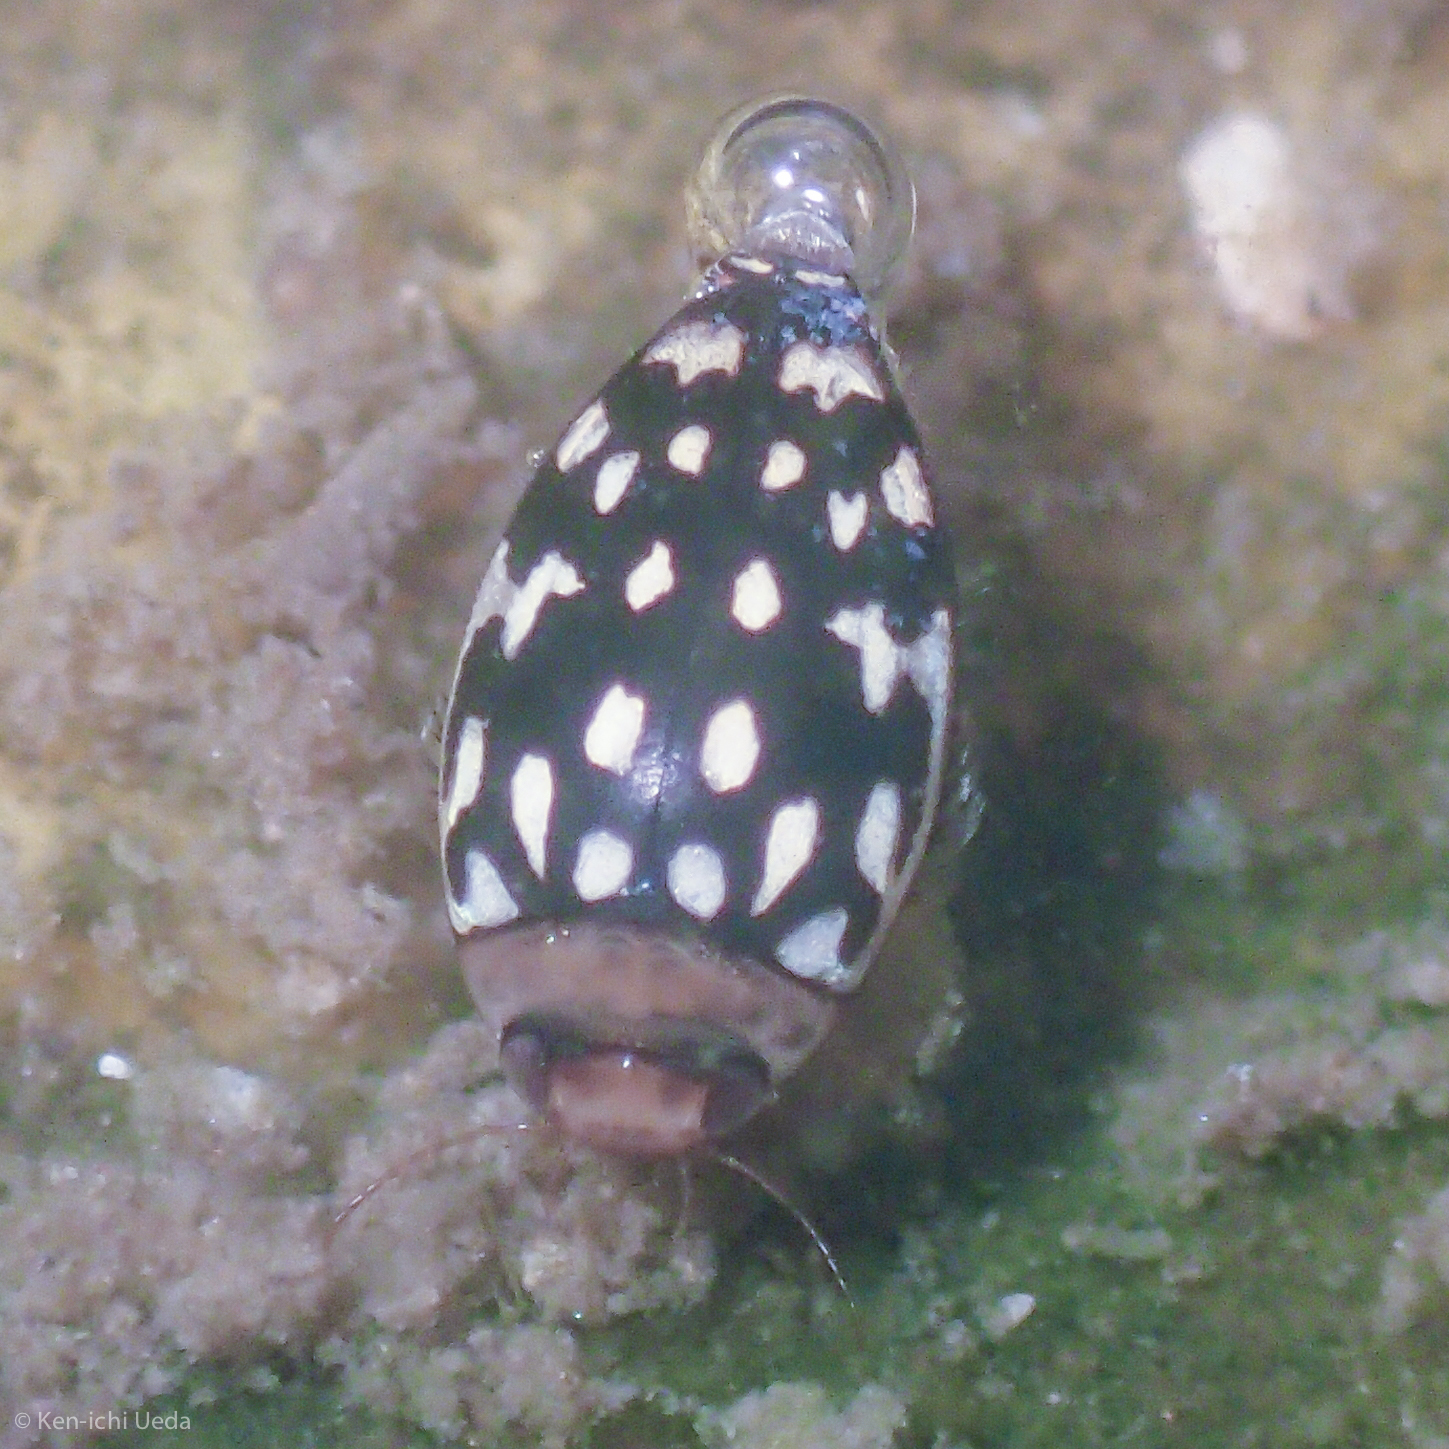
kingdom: Animalia
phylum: Arthropoda
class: Insecta
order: Coleoptera
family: Dytiscidae
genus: Laccophilus
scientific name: Laccophilus pictus
